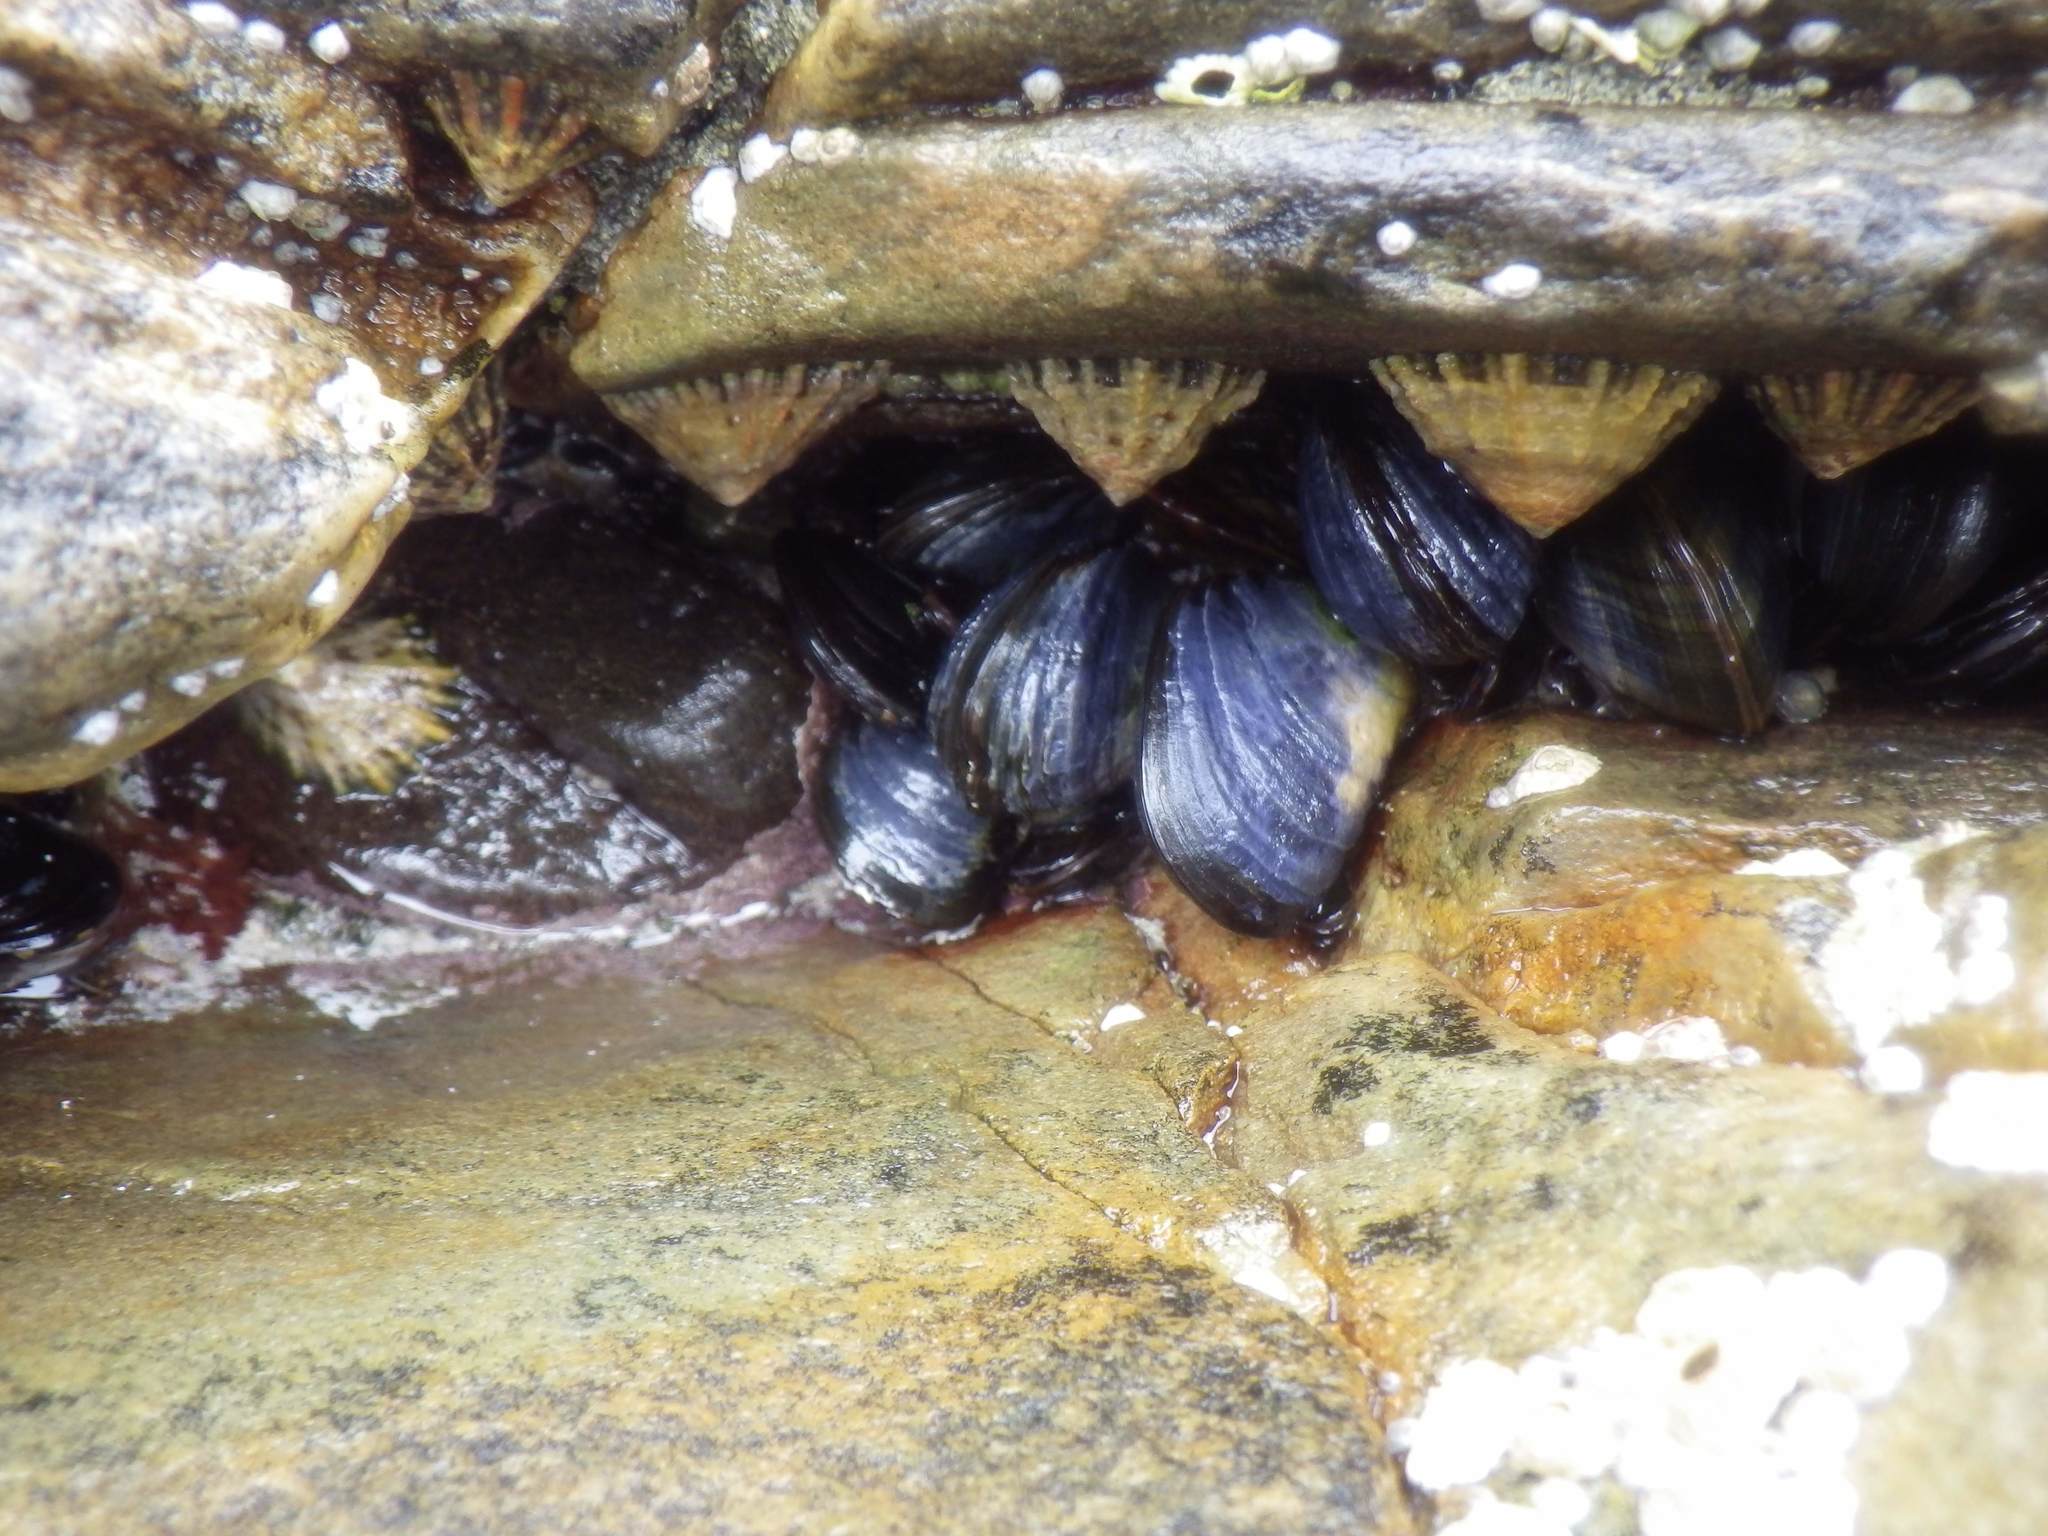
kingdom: Animalia
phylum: Mollusca
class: Bivalvia
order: Mytilida
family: Mytilidae
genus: Mytilus
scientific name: Mytilus edulis
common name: Blue mussel
